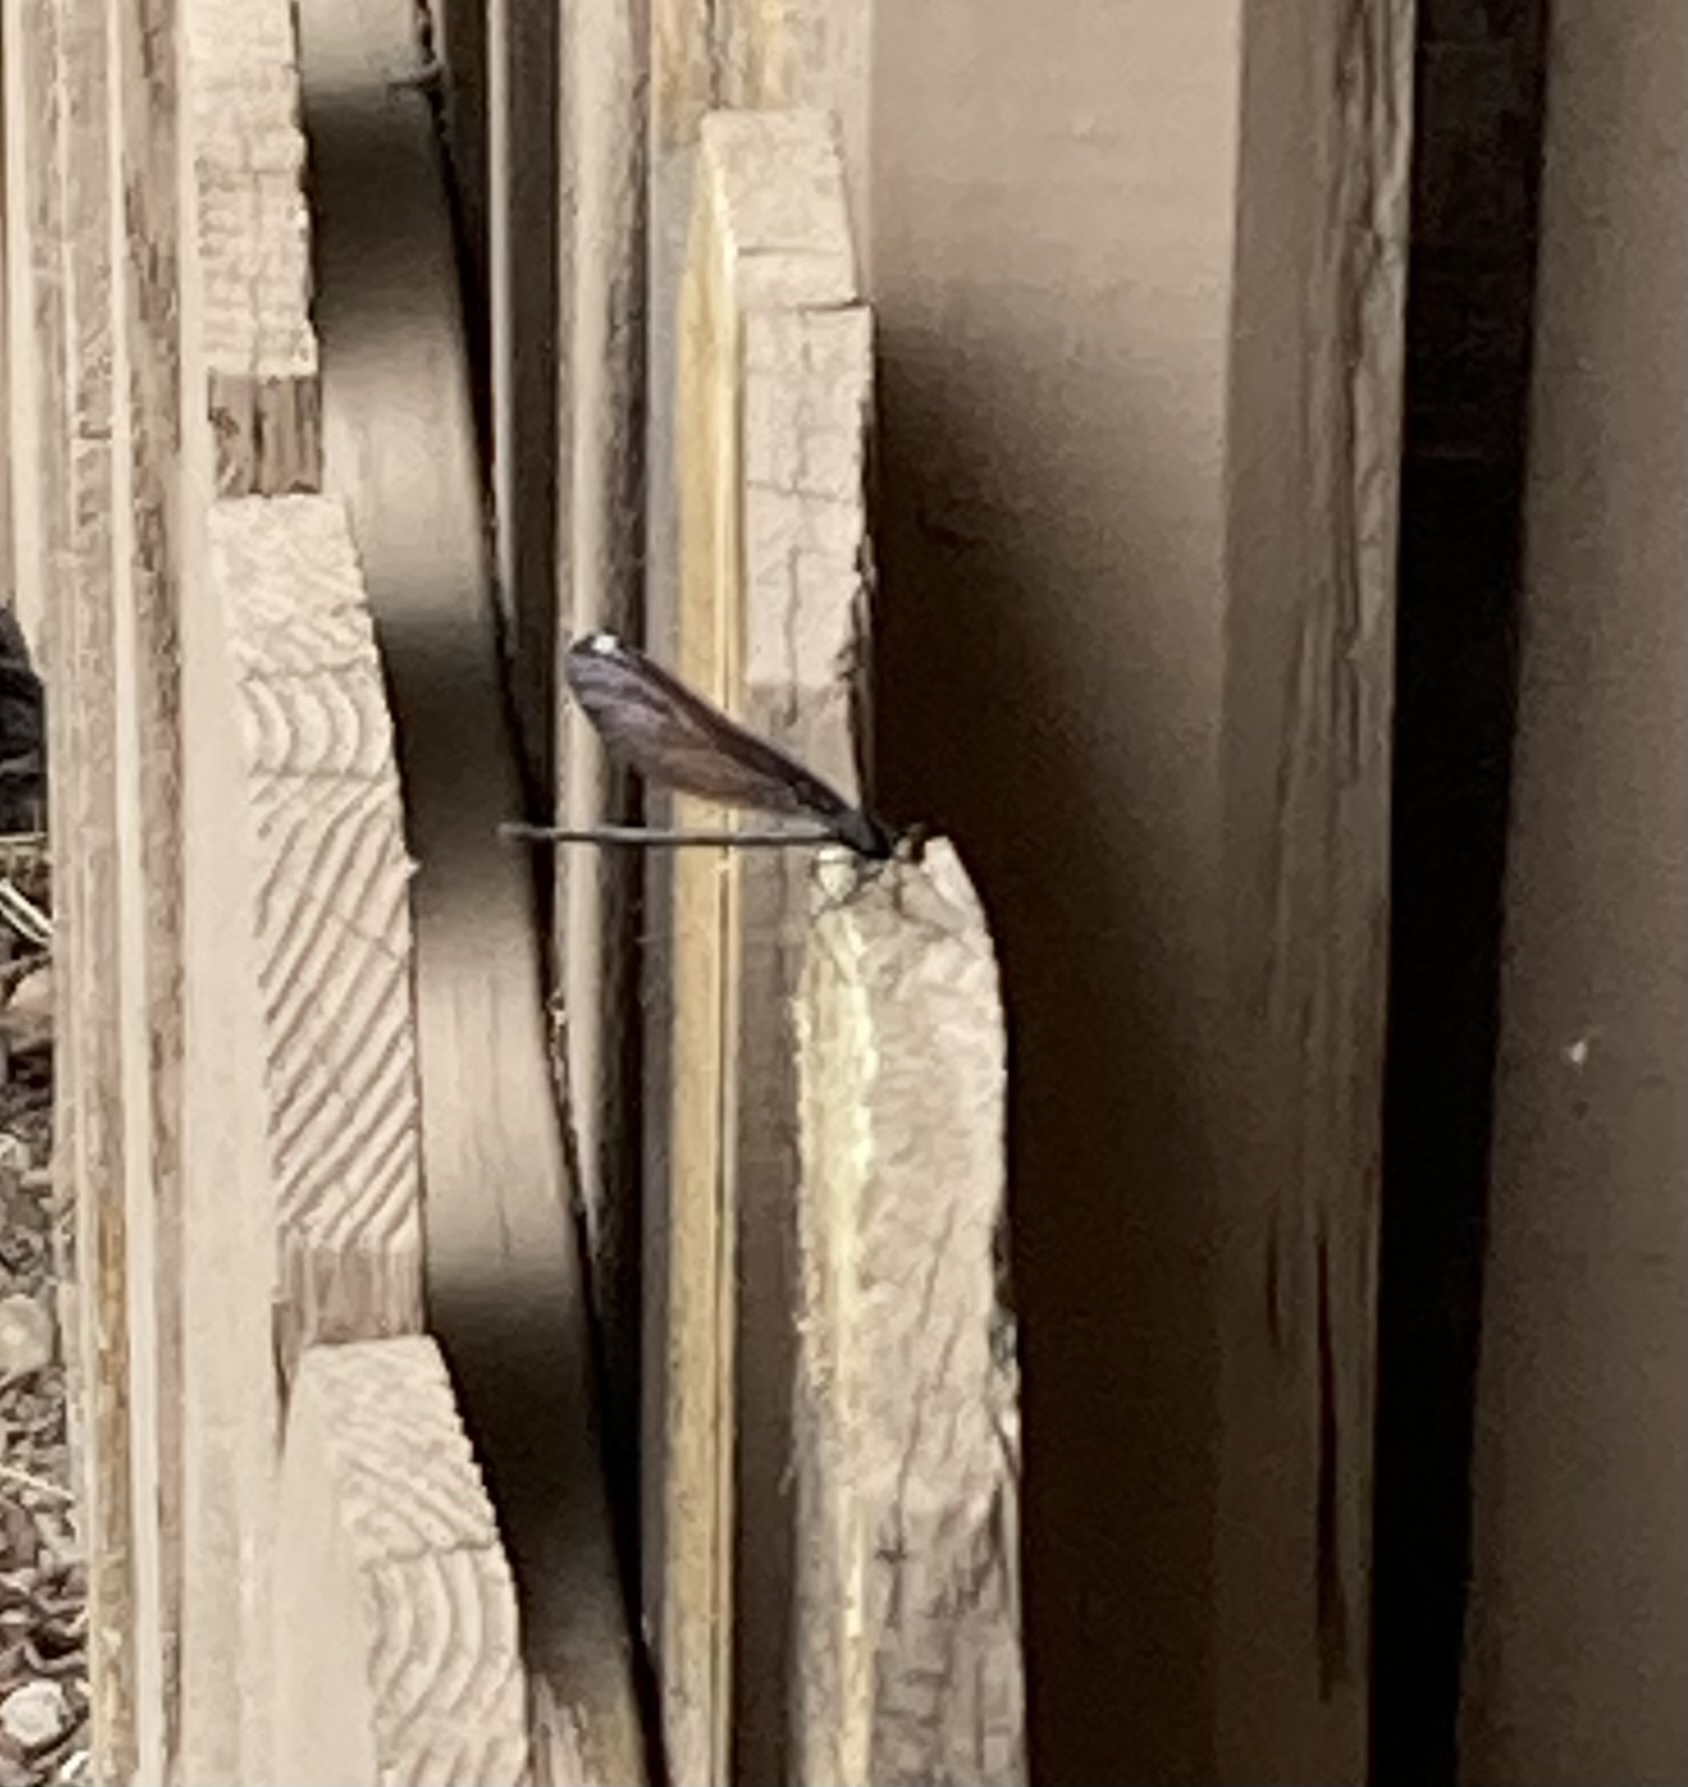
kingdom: Animalia
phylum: Arthropoda
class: Insecta
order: Odonata
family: Calopterygidae
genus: Calopteryx
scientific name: Calopteryx maculata
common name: Ebony jewelwing
